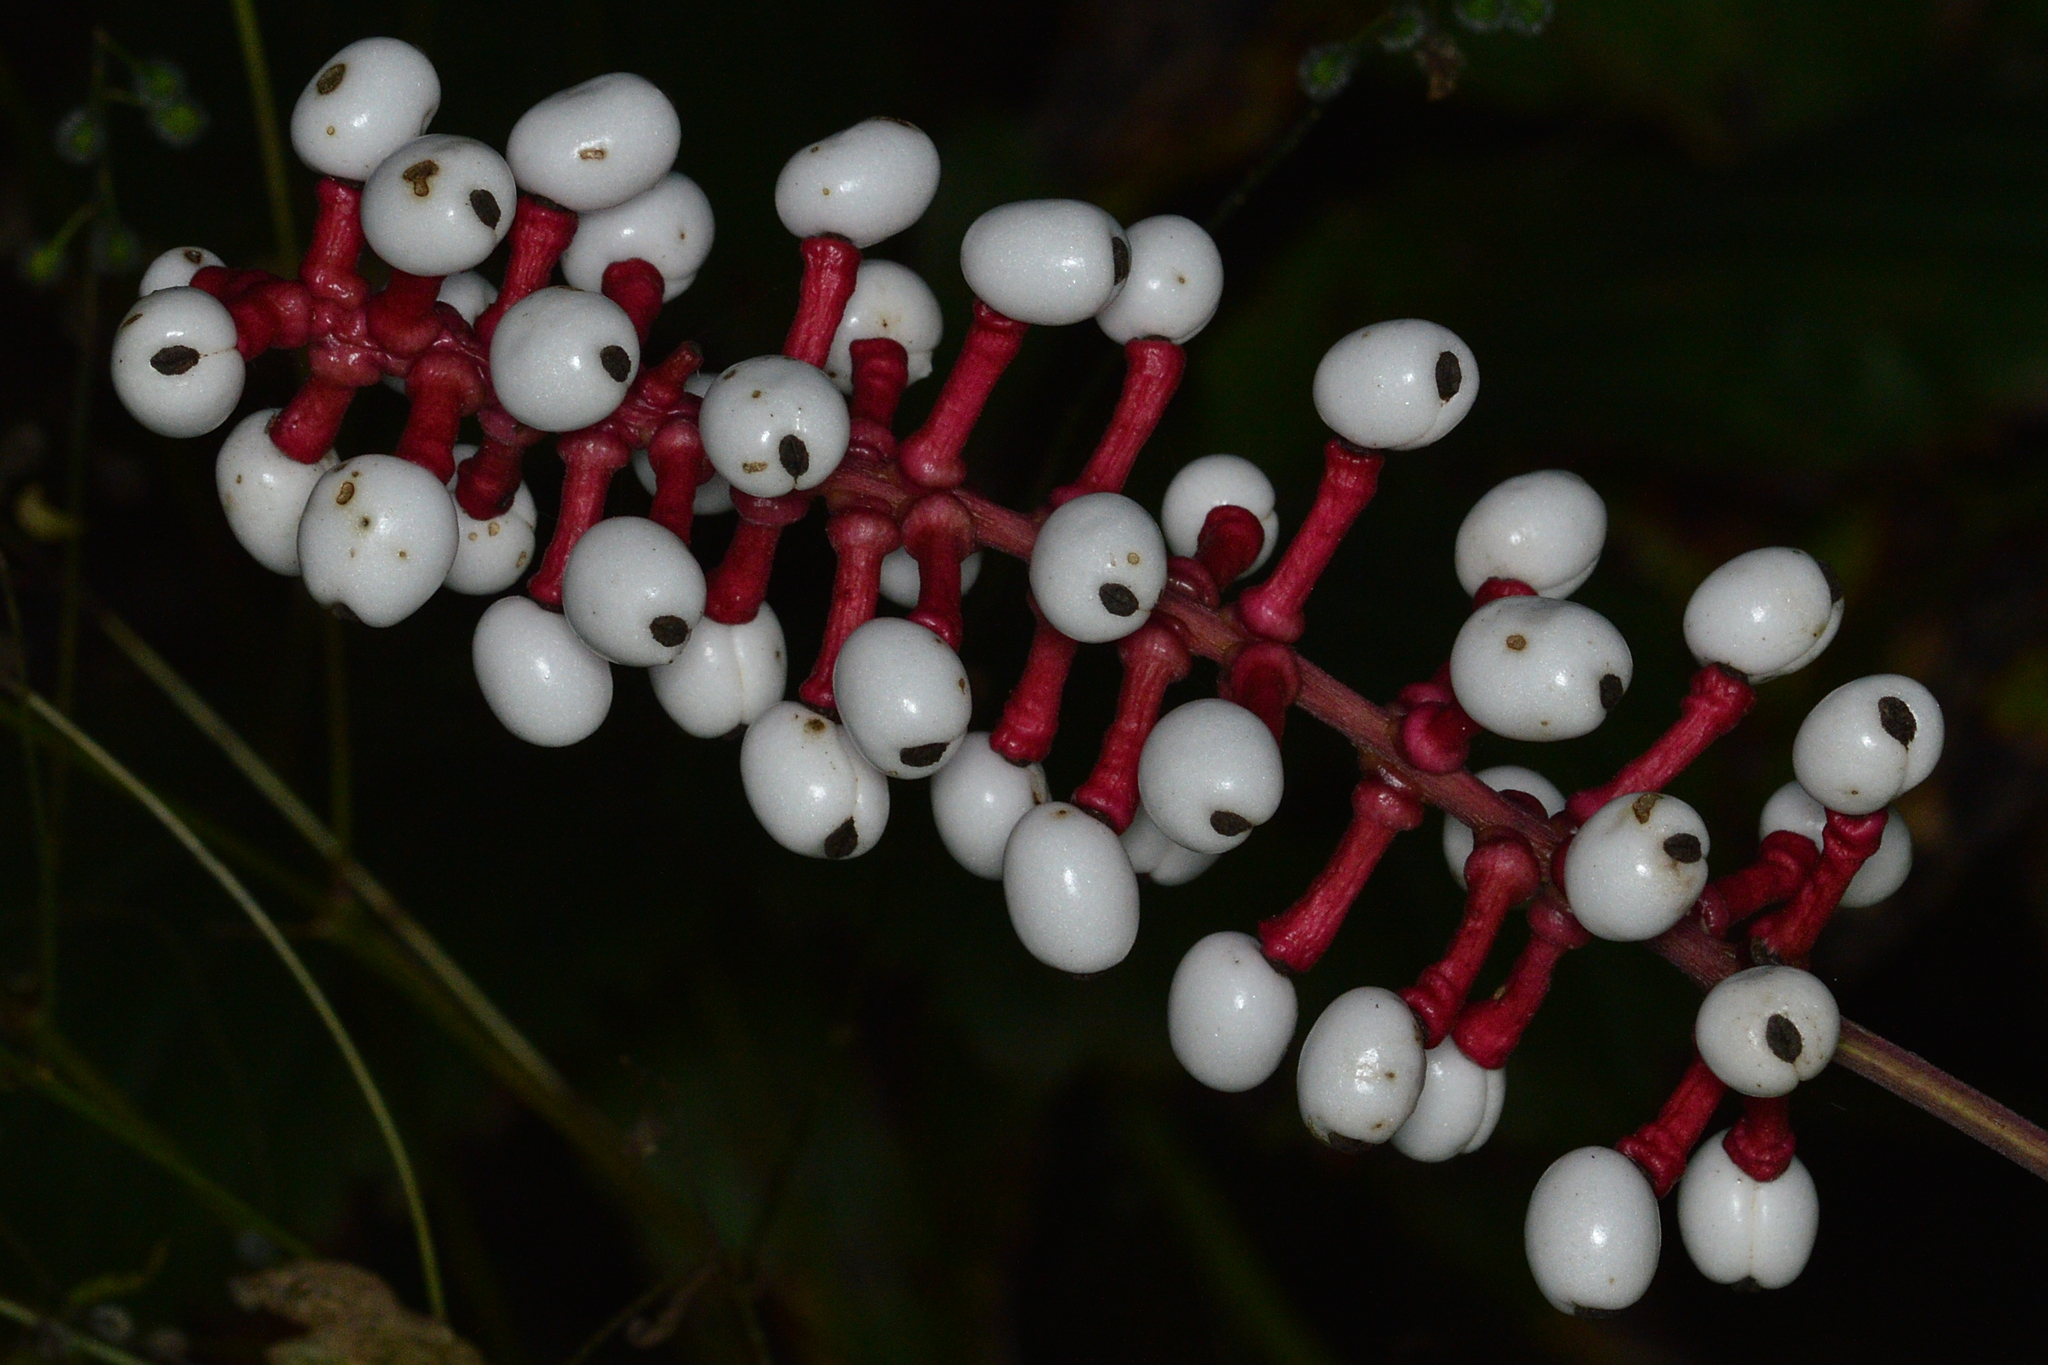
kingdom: Plantae
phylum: Tracheophyta
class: Magnoliopsida
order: Ranunculales
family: Ranunculaceae
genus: Actaea
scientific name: Actaea pachypoda
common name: Doll's-eyes
